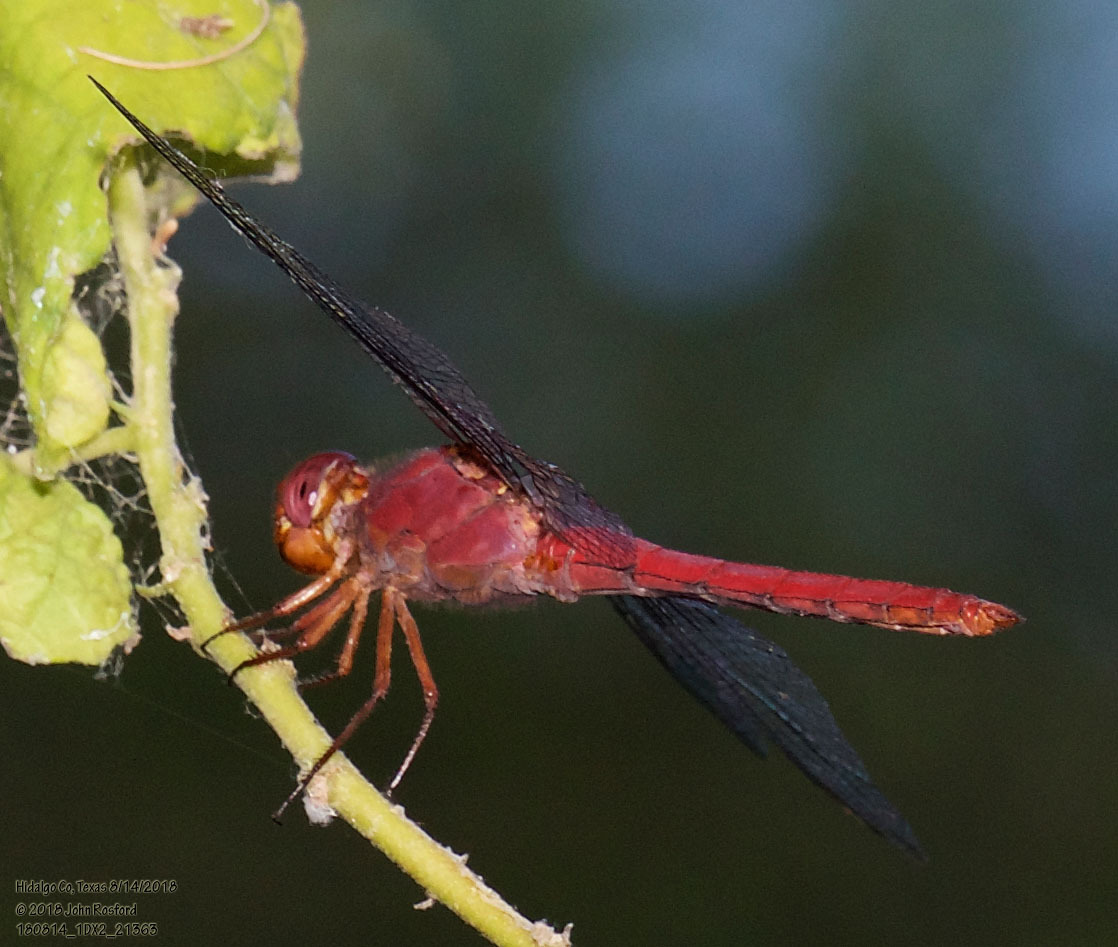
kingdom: Animalia
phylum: Arthropoda
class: Insecta
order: Odonata
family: Libellulidae
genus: Orthemis
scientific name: Orthemis discolor
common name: Carmine skimmer
